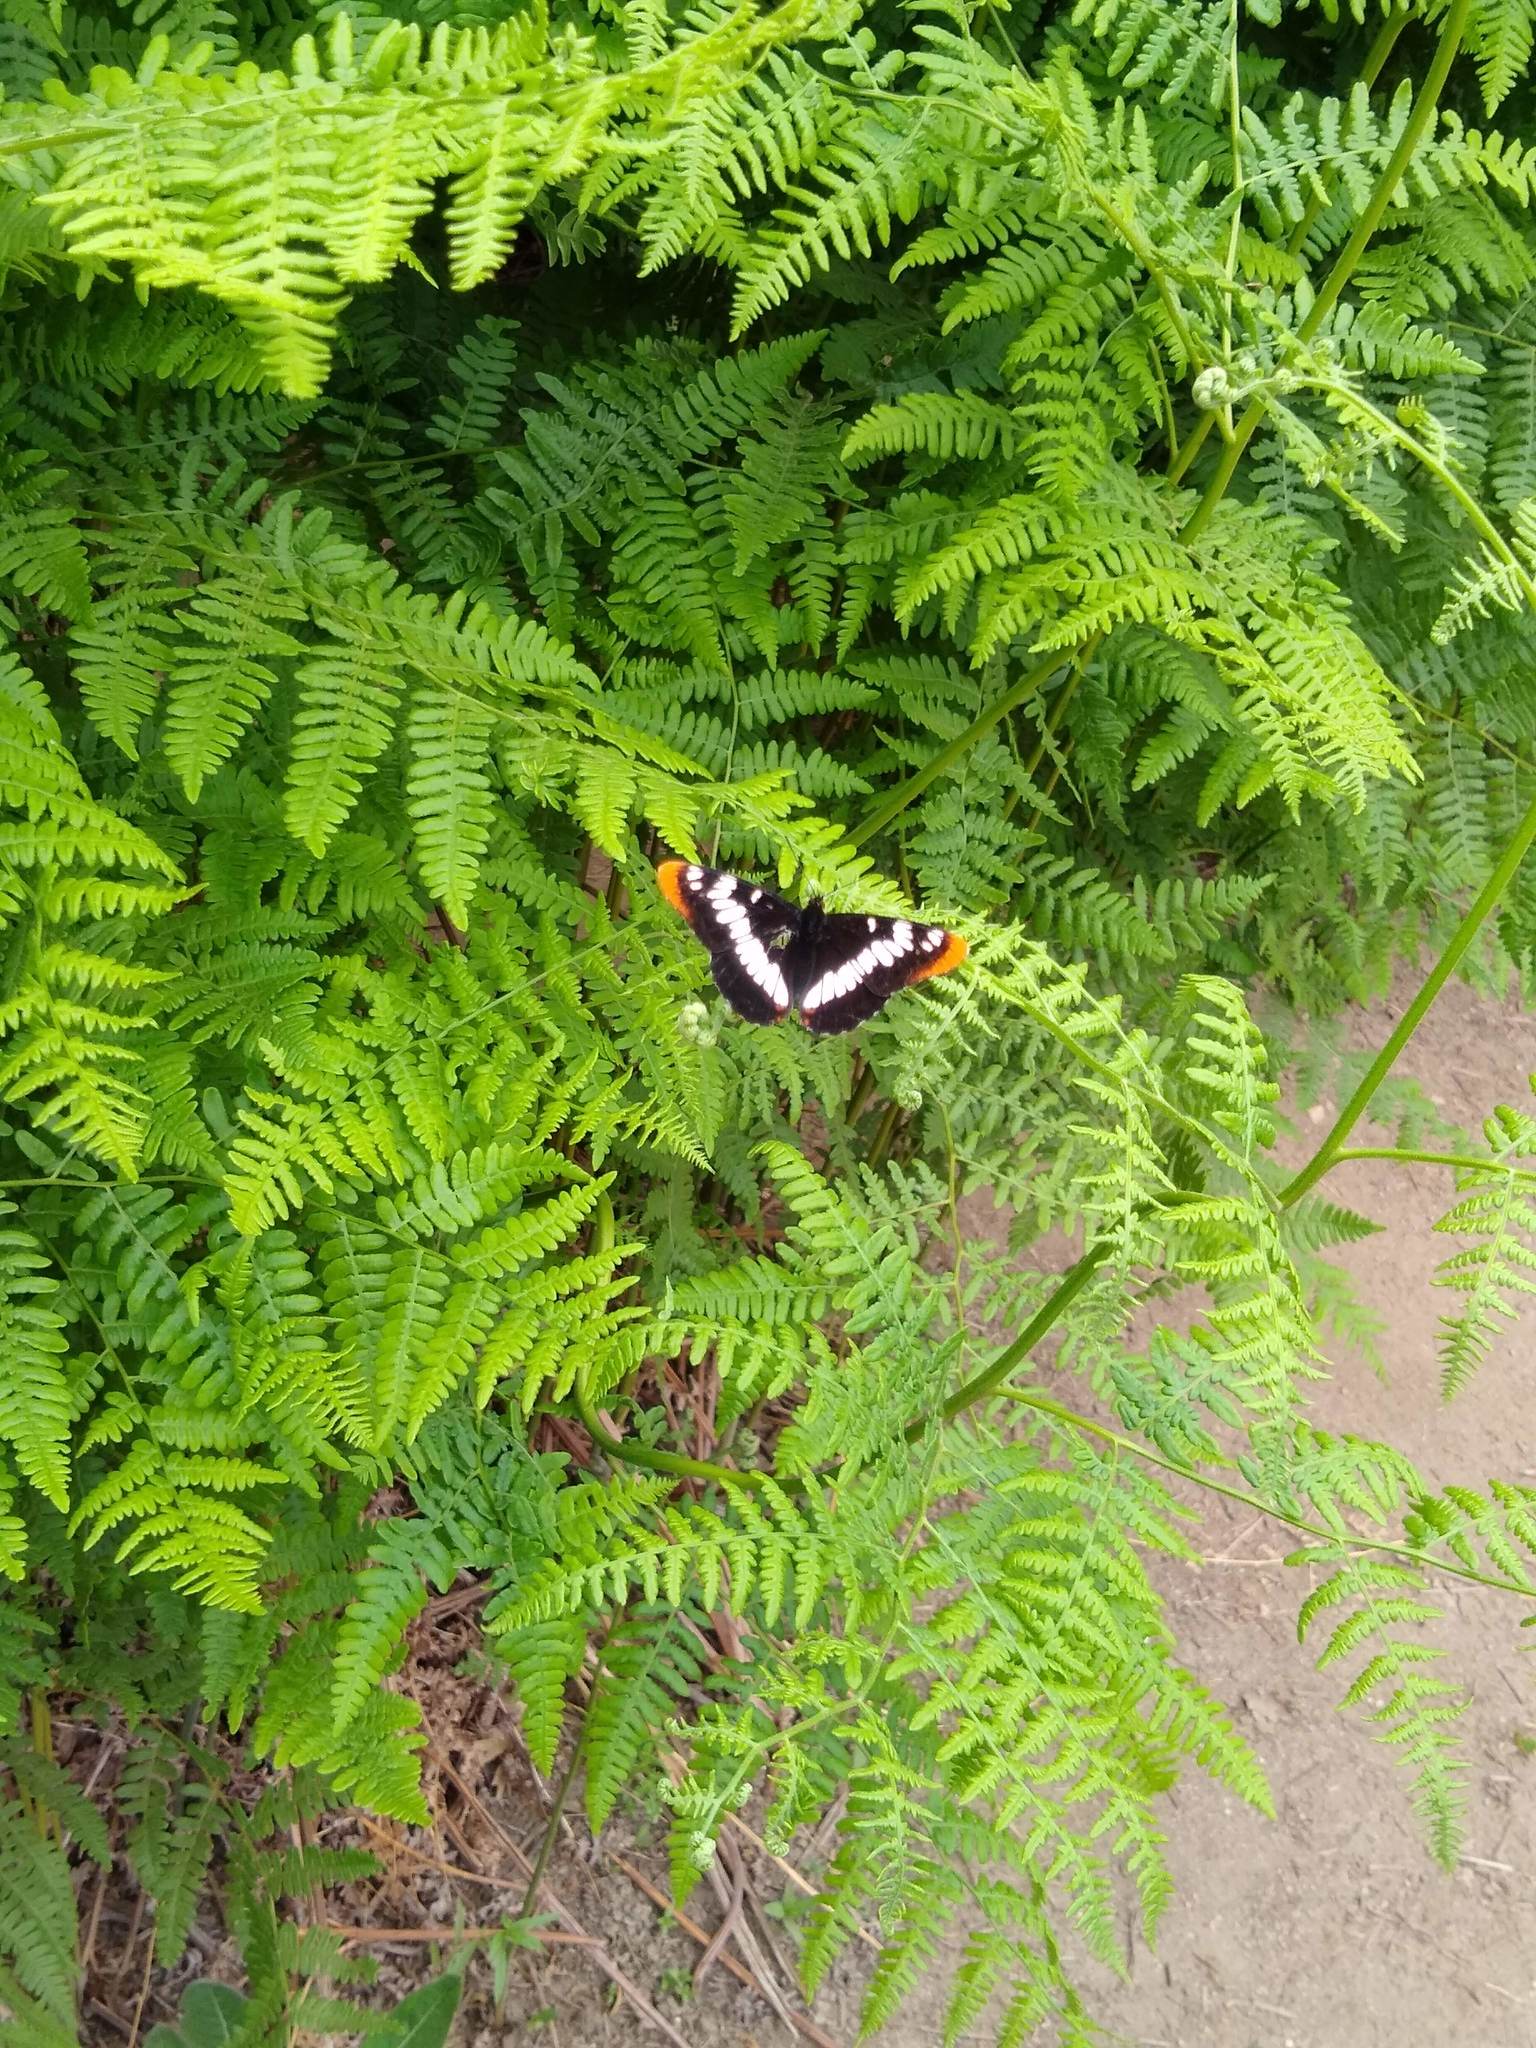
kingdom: Animalia
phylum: Arthropoda
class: Insecta
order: Lepidoptera
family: Nymphalidae
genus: Limenitis
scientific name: Limenitis lorquini
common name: Lorquin's admiral
